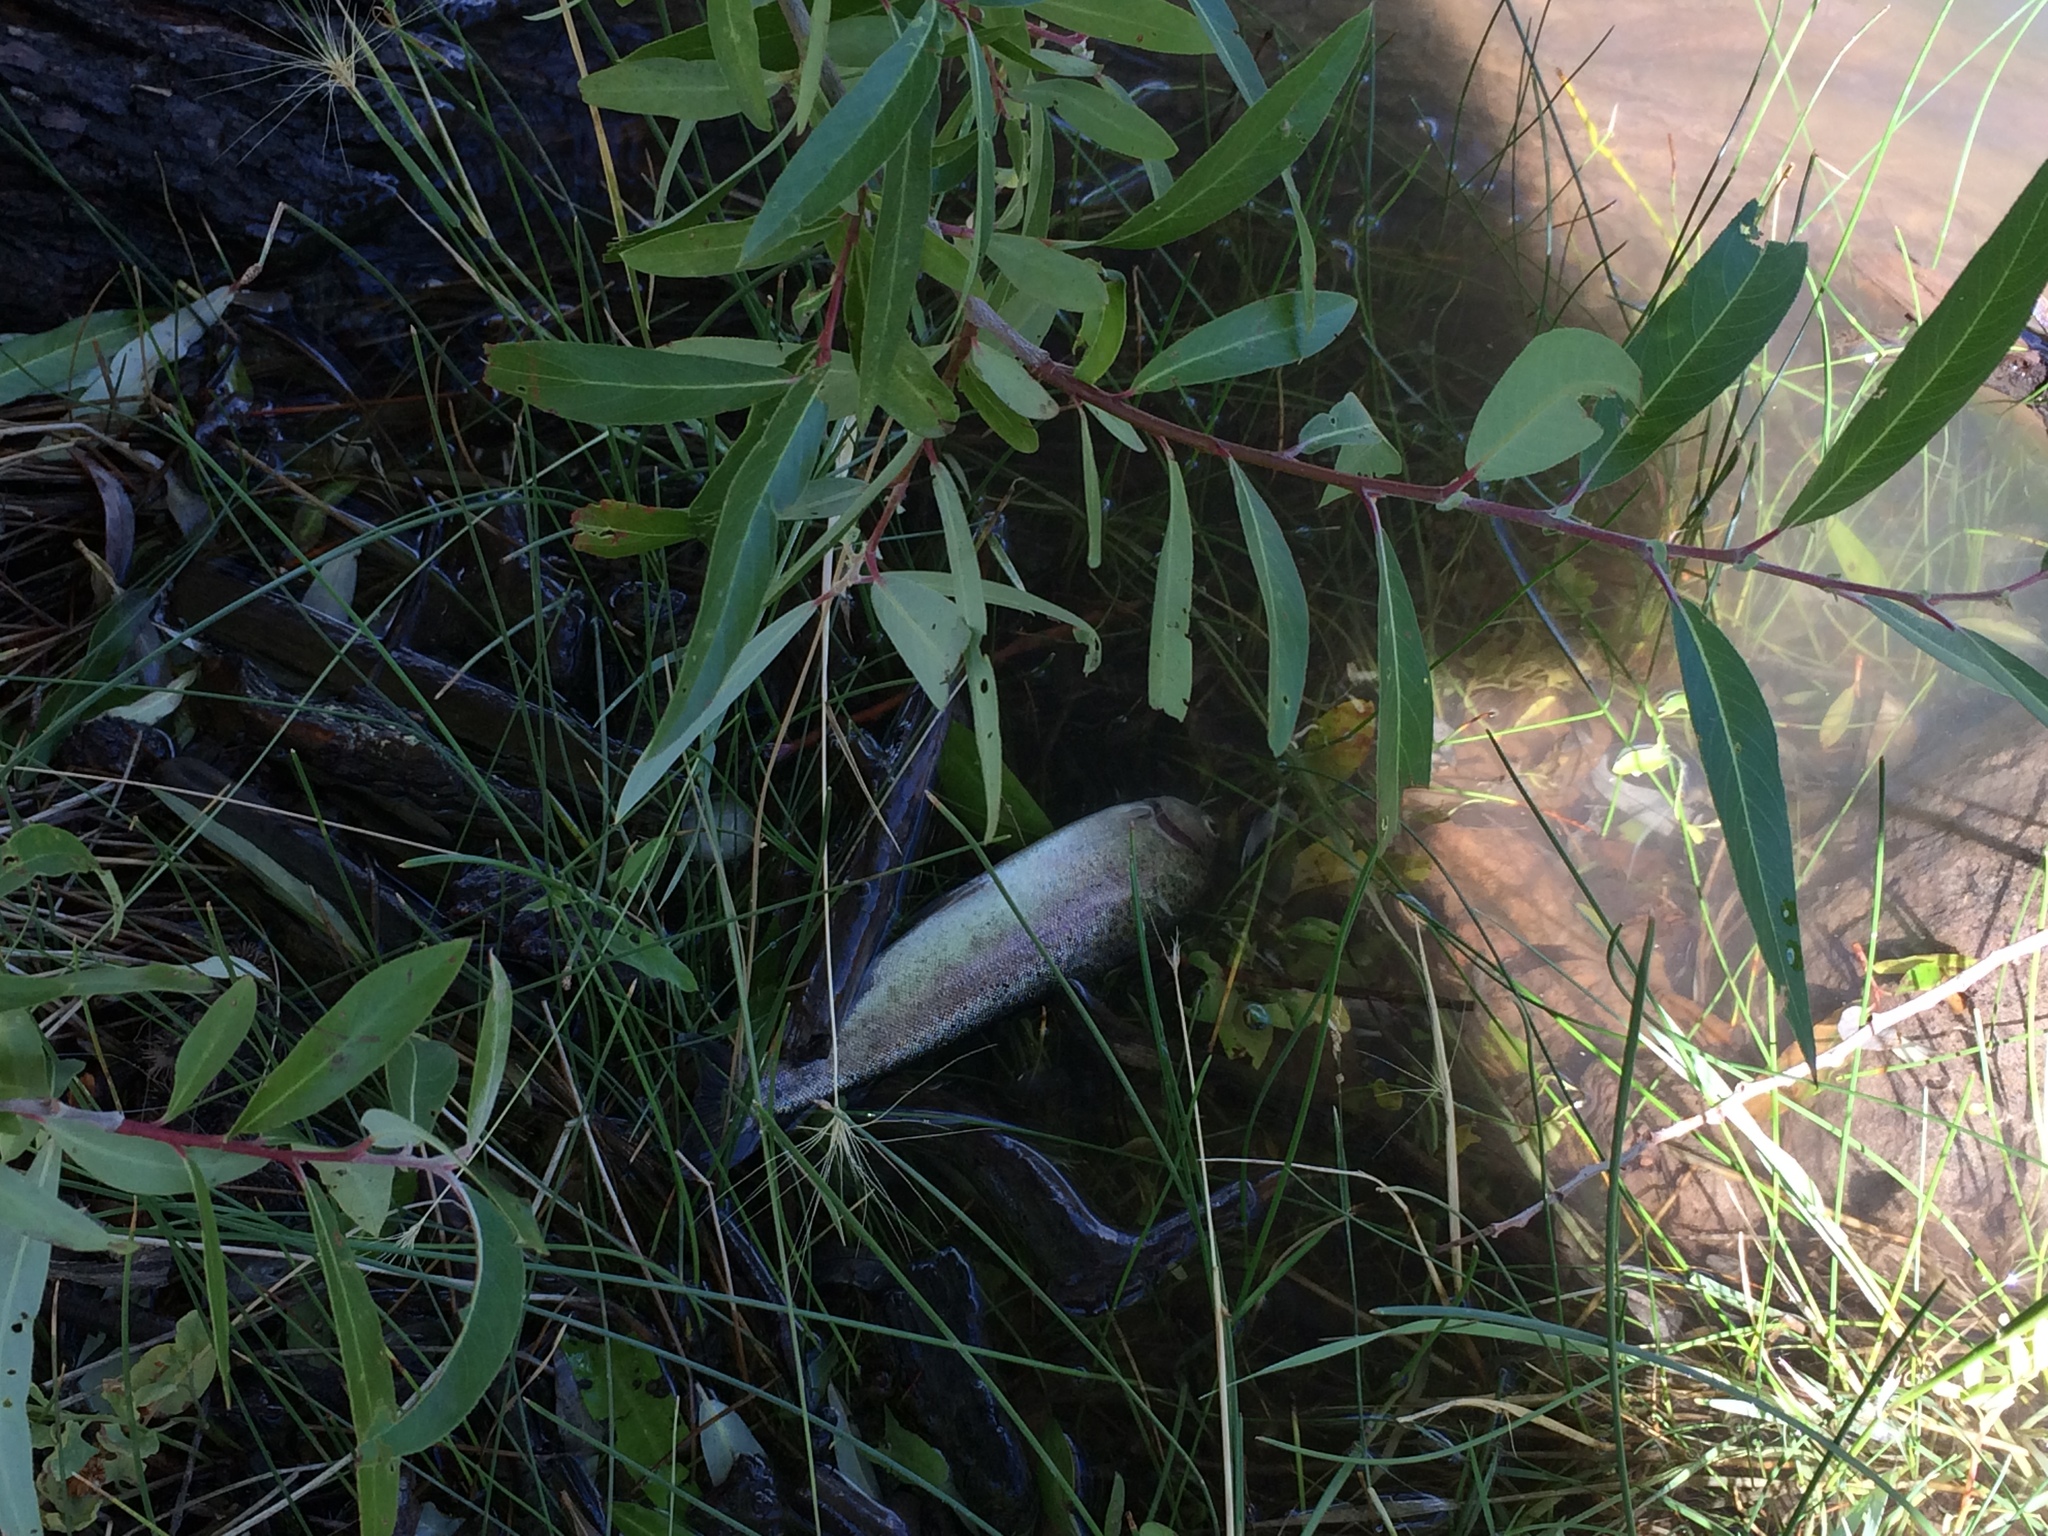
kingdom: Animalia
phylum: Chordata
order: Salmoniformes
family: Salmonidae
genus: Oncorhynchus
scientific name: Oncorhynchus mykiss
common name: Rainbow trout
